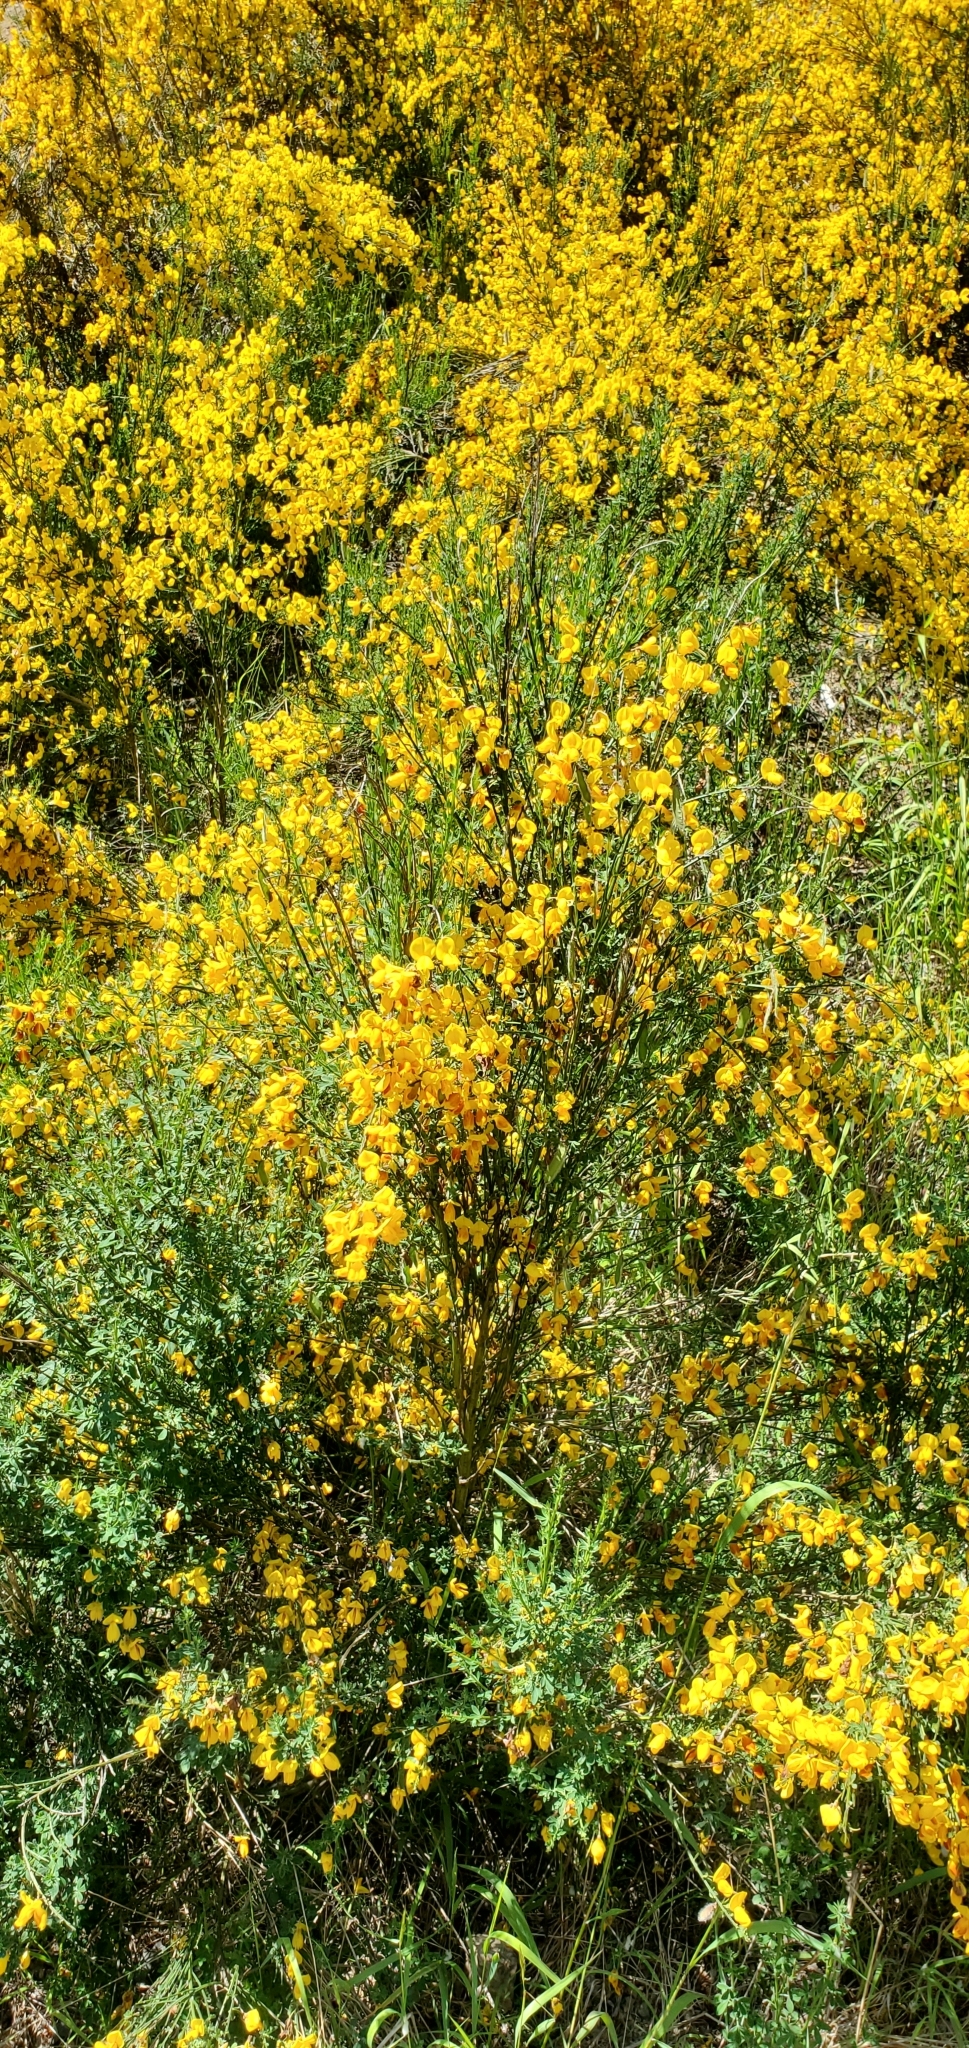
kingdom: Plantae
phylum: Tracheophyta
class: Magnoliopsida
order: Fabales
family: Fabaceae
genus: Cytisus
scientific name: Cytisus scoparius
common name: Scotch broom
